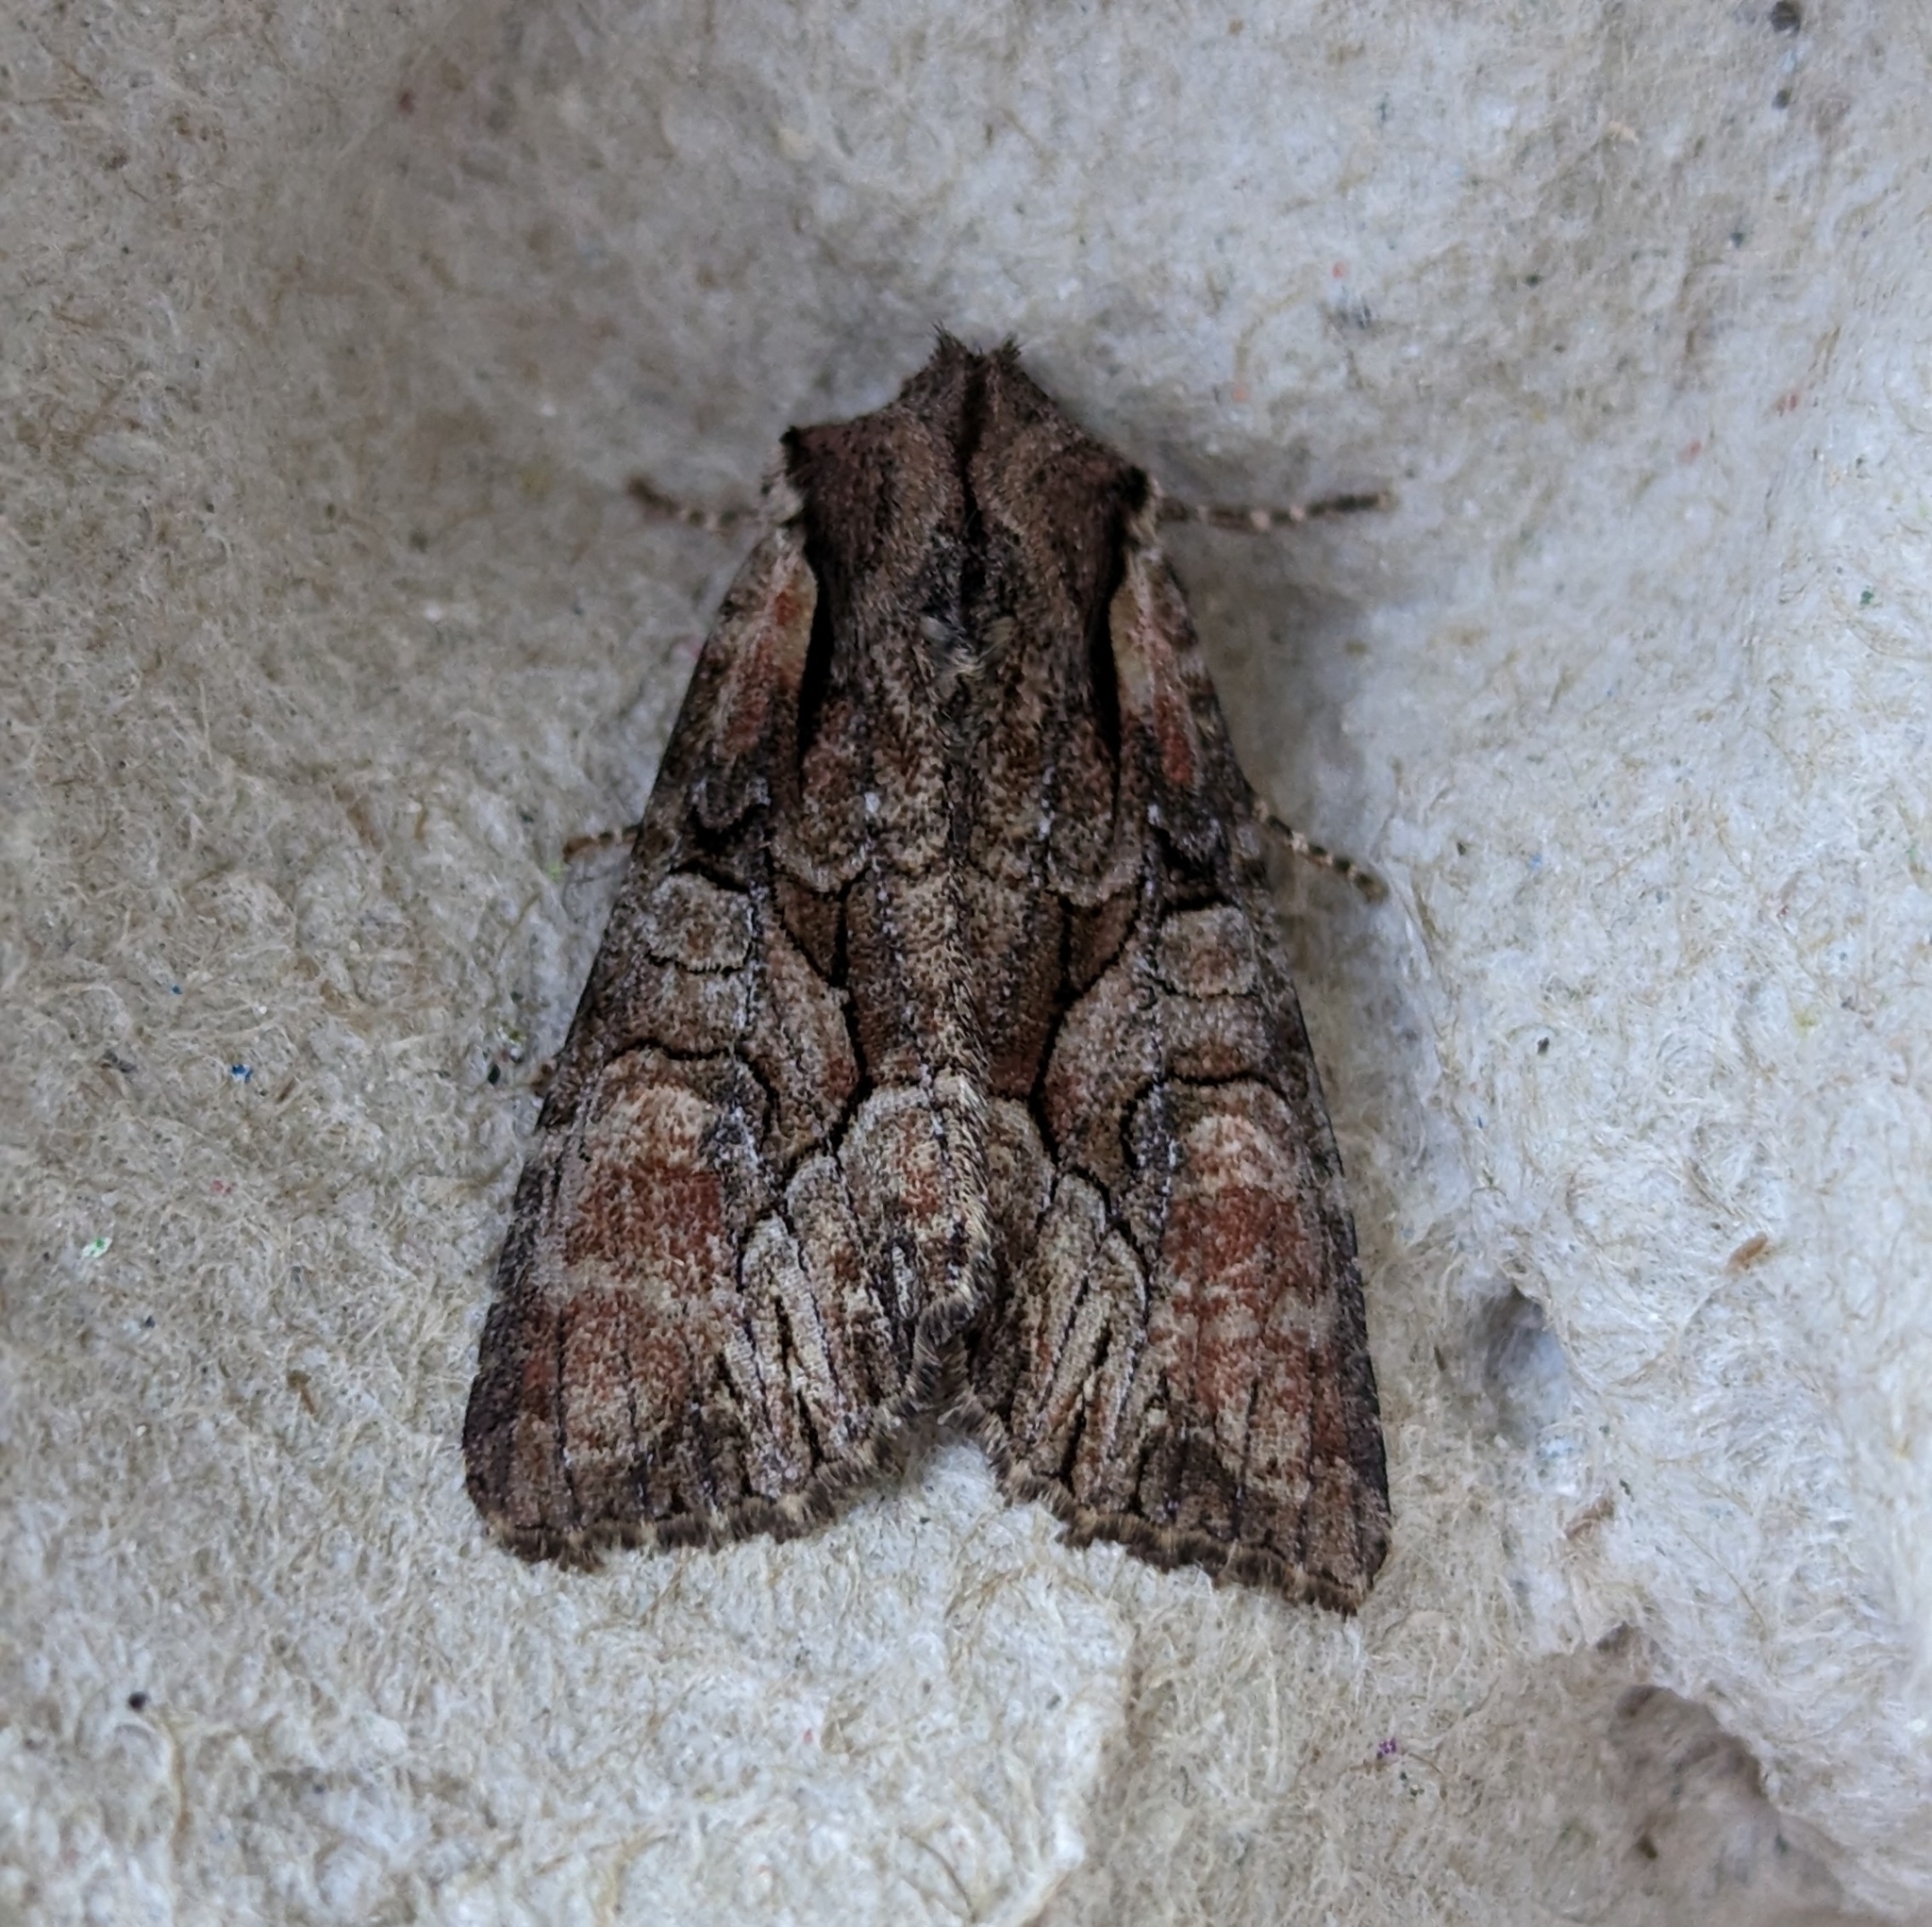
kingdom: Animalia
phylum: Arthropoda
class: Insecta
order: Lepidoptera
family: Noctuidae
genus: Lacanobia
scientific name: Lacanobia subjuncta
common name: Speckled cutworm moth
